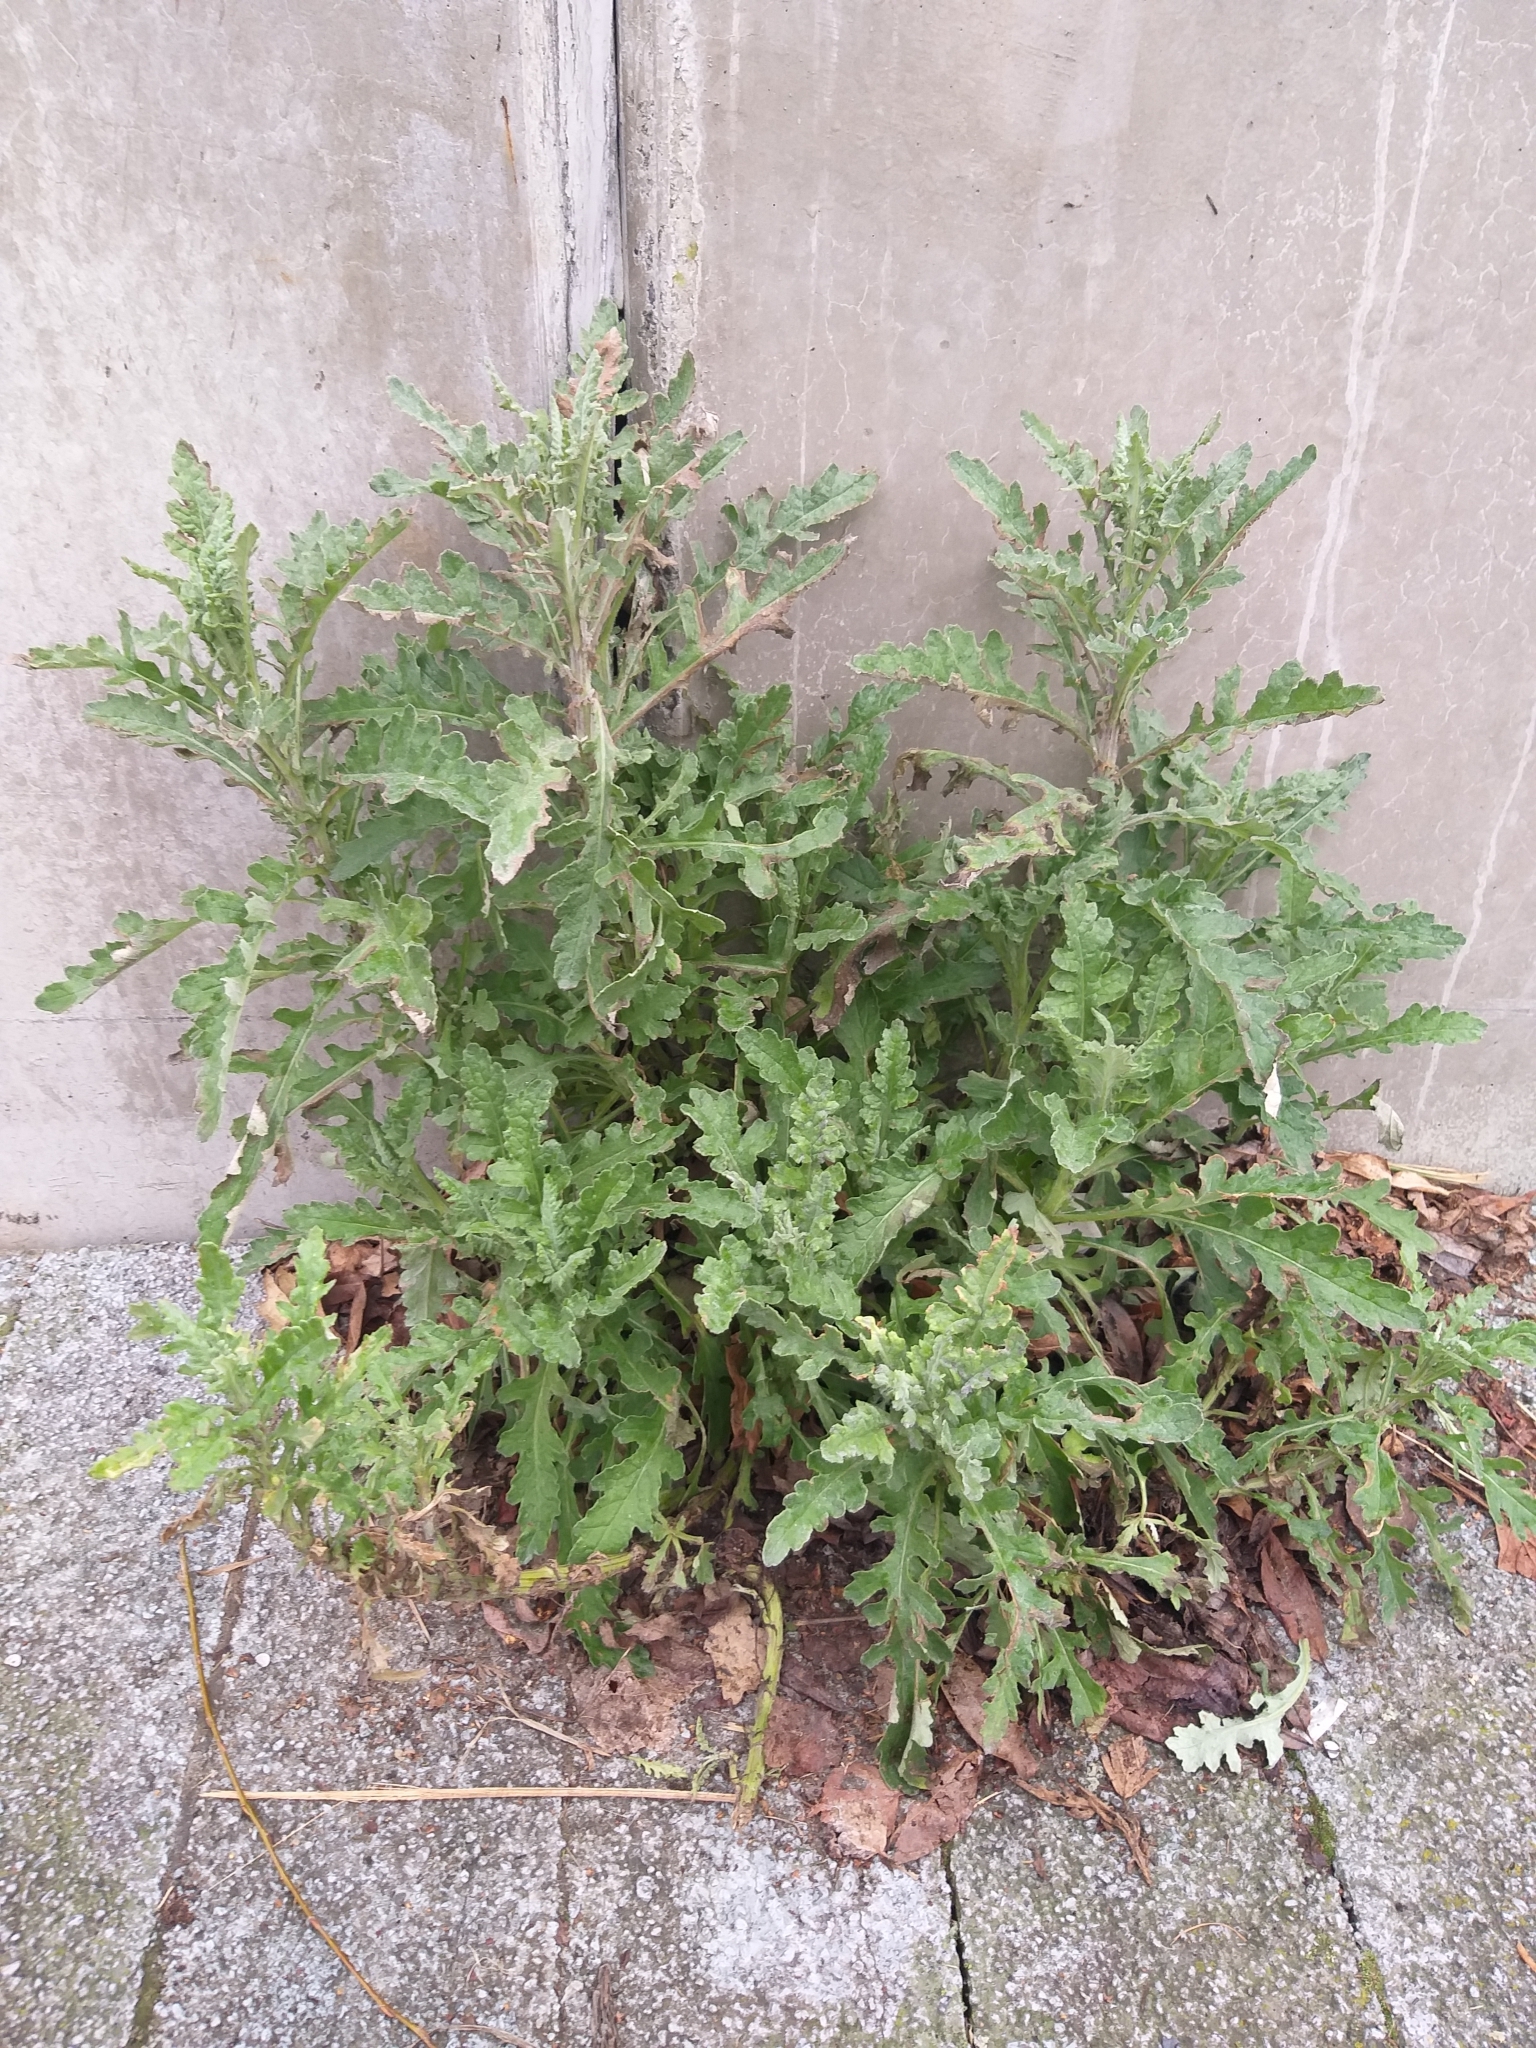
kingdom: Plantae
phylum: Tracheophyta
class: Magnoliopsida
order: Asterales
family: Asteraceae
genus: Senecio
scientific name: Senecio glomeratus
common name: Cutleaf burnweed
